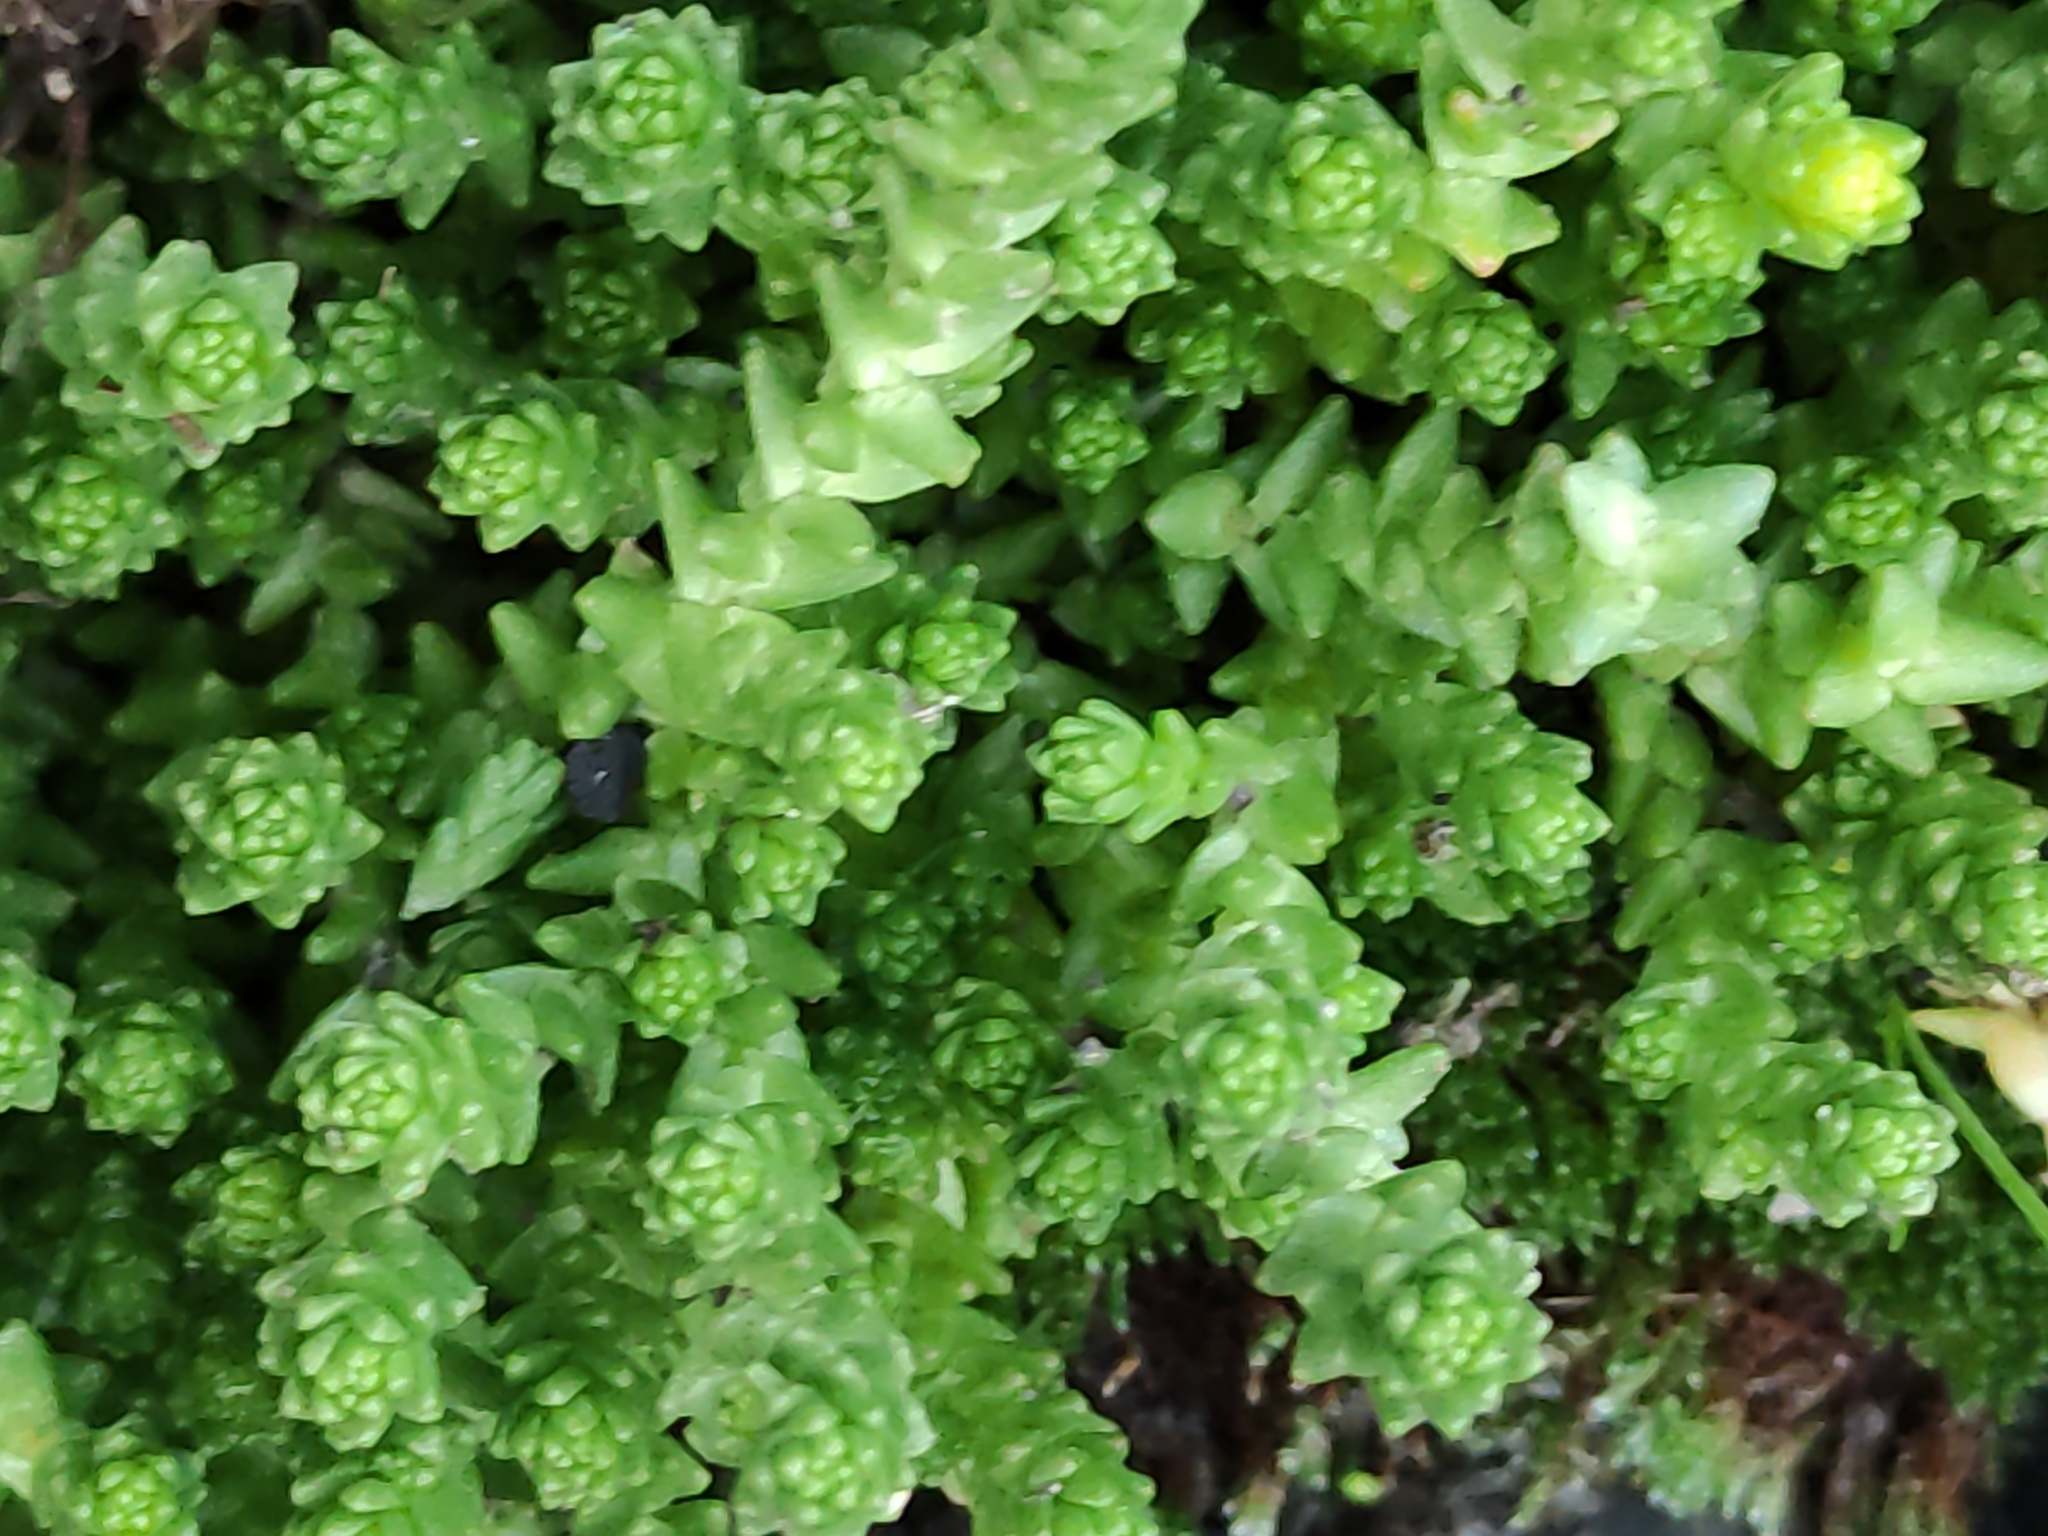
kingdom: Plantae
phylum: Tracheophyta
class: Magnoliopsida
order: Saxifragales
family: Crassulaceae
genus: Sedum
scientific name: Sedum acre
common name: Biting stonecrop
